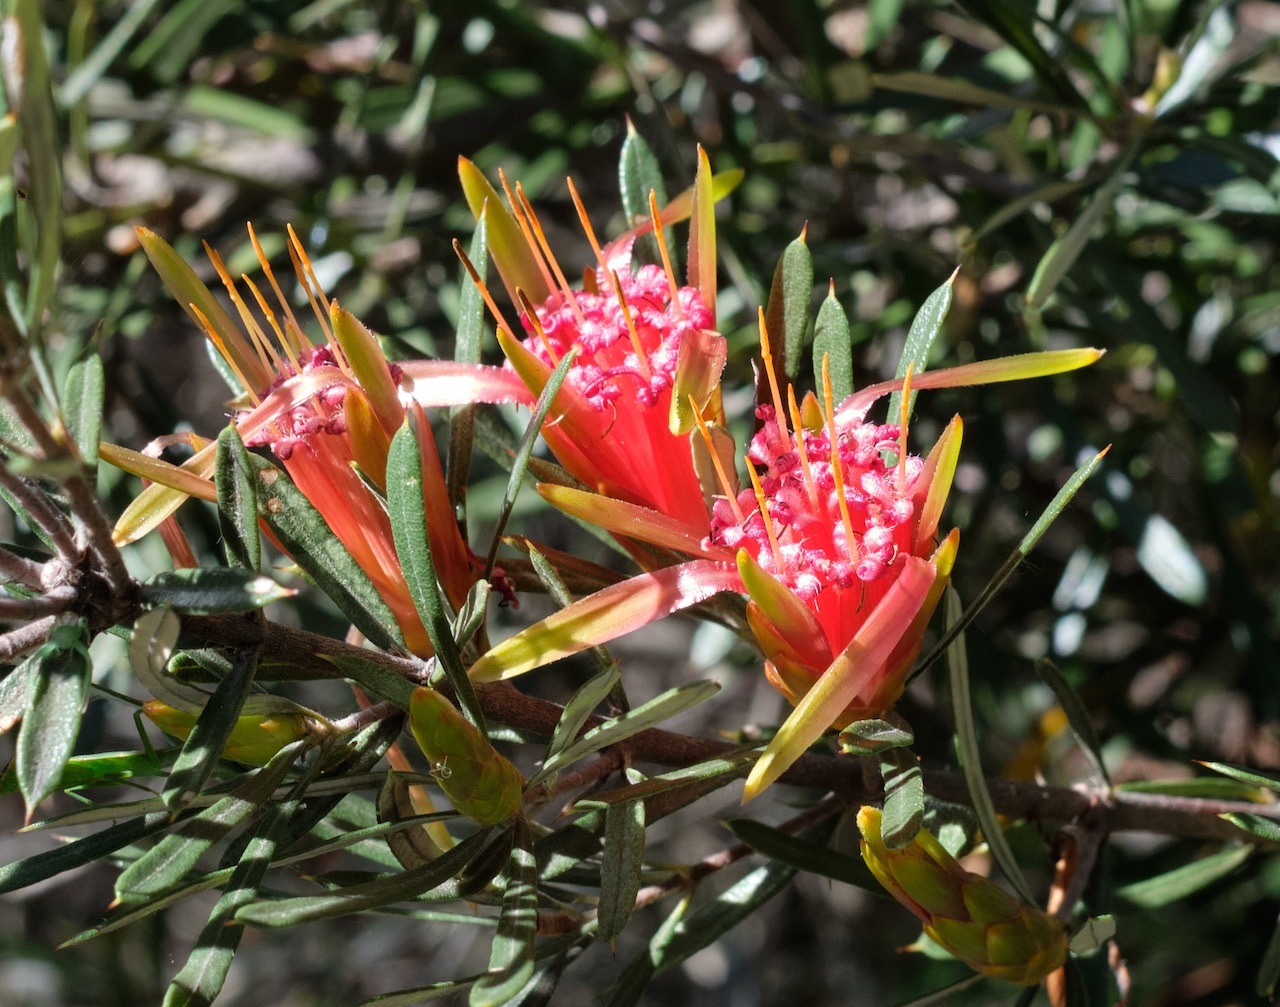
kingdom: Plantae
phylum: Tracheophyta
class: Magnoliopsida
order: Proteales
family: Proteaceae
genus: Lambertia
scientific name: Lambertia formosa
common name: Mountain-devil
